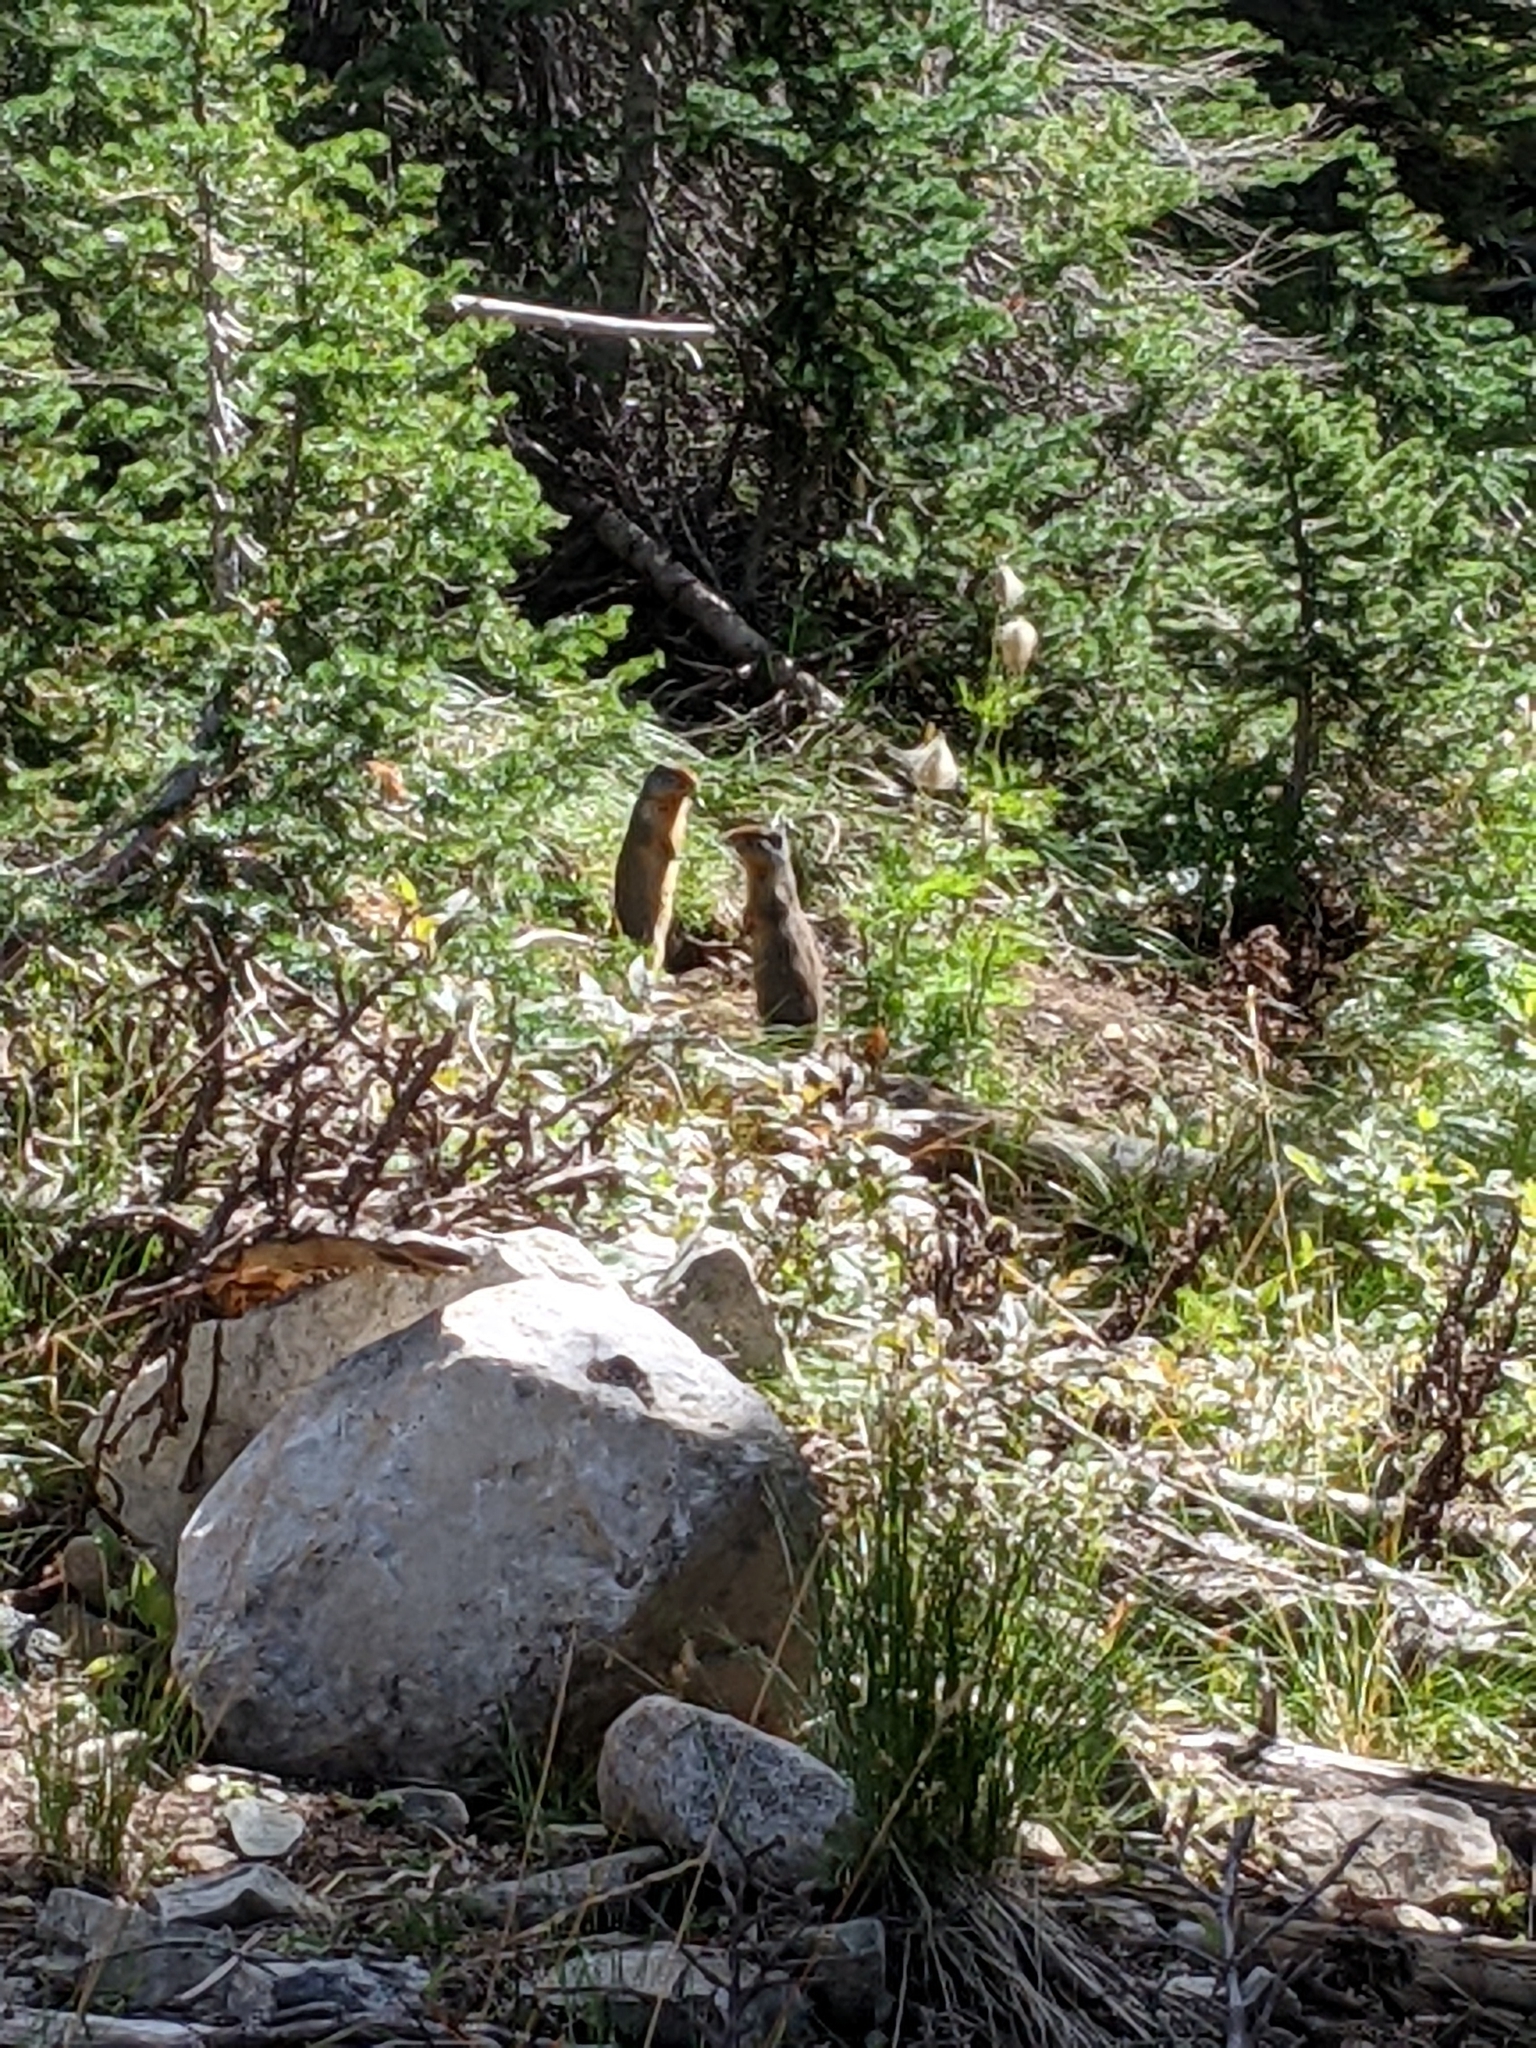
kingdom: Animalia
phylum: Chordata
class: Mammalia
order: Rodentia
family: Sciuridae
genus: Urocitellus
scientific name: Urocitellus columbianus
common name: Columbian ground squirrel
